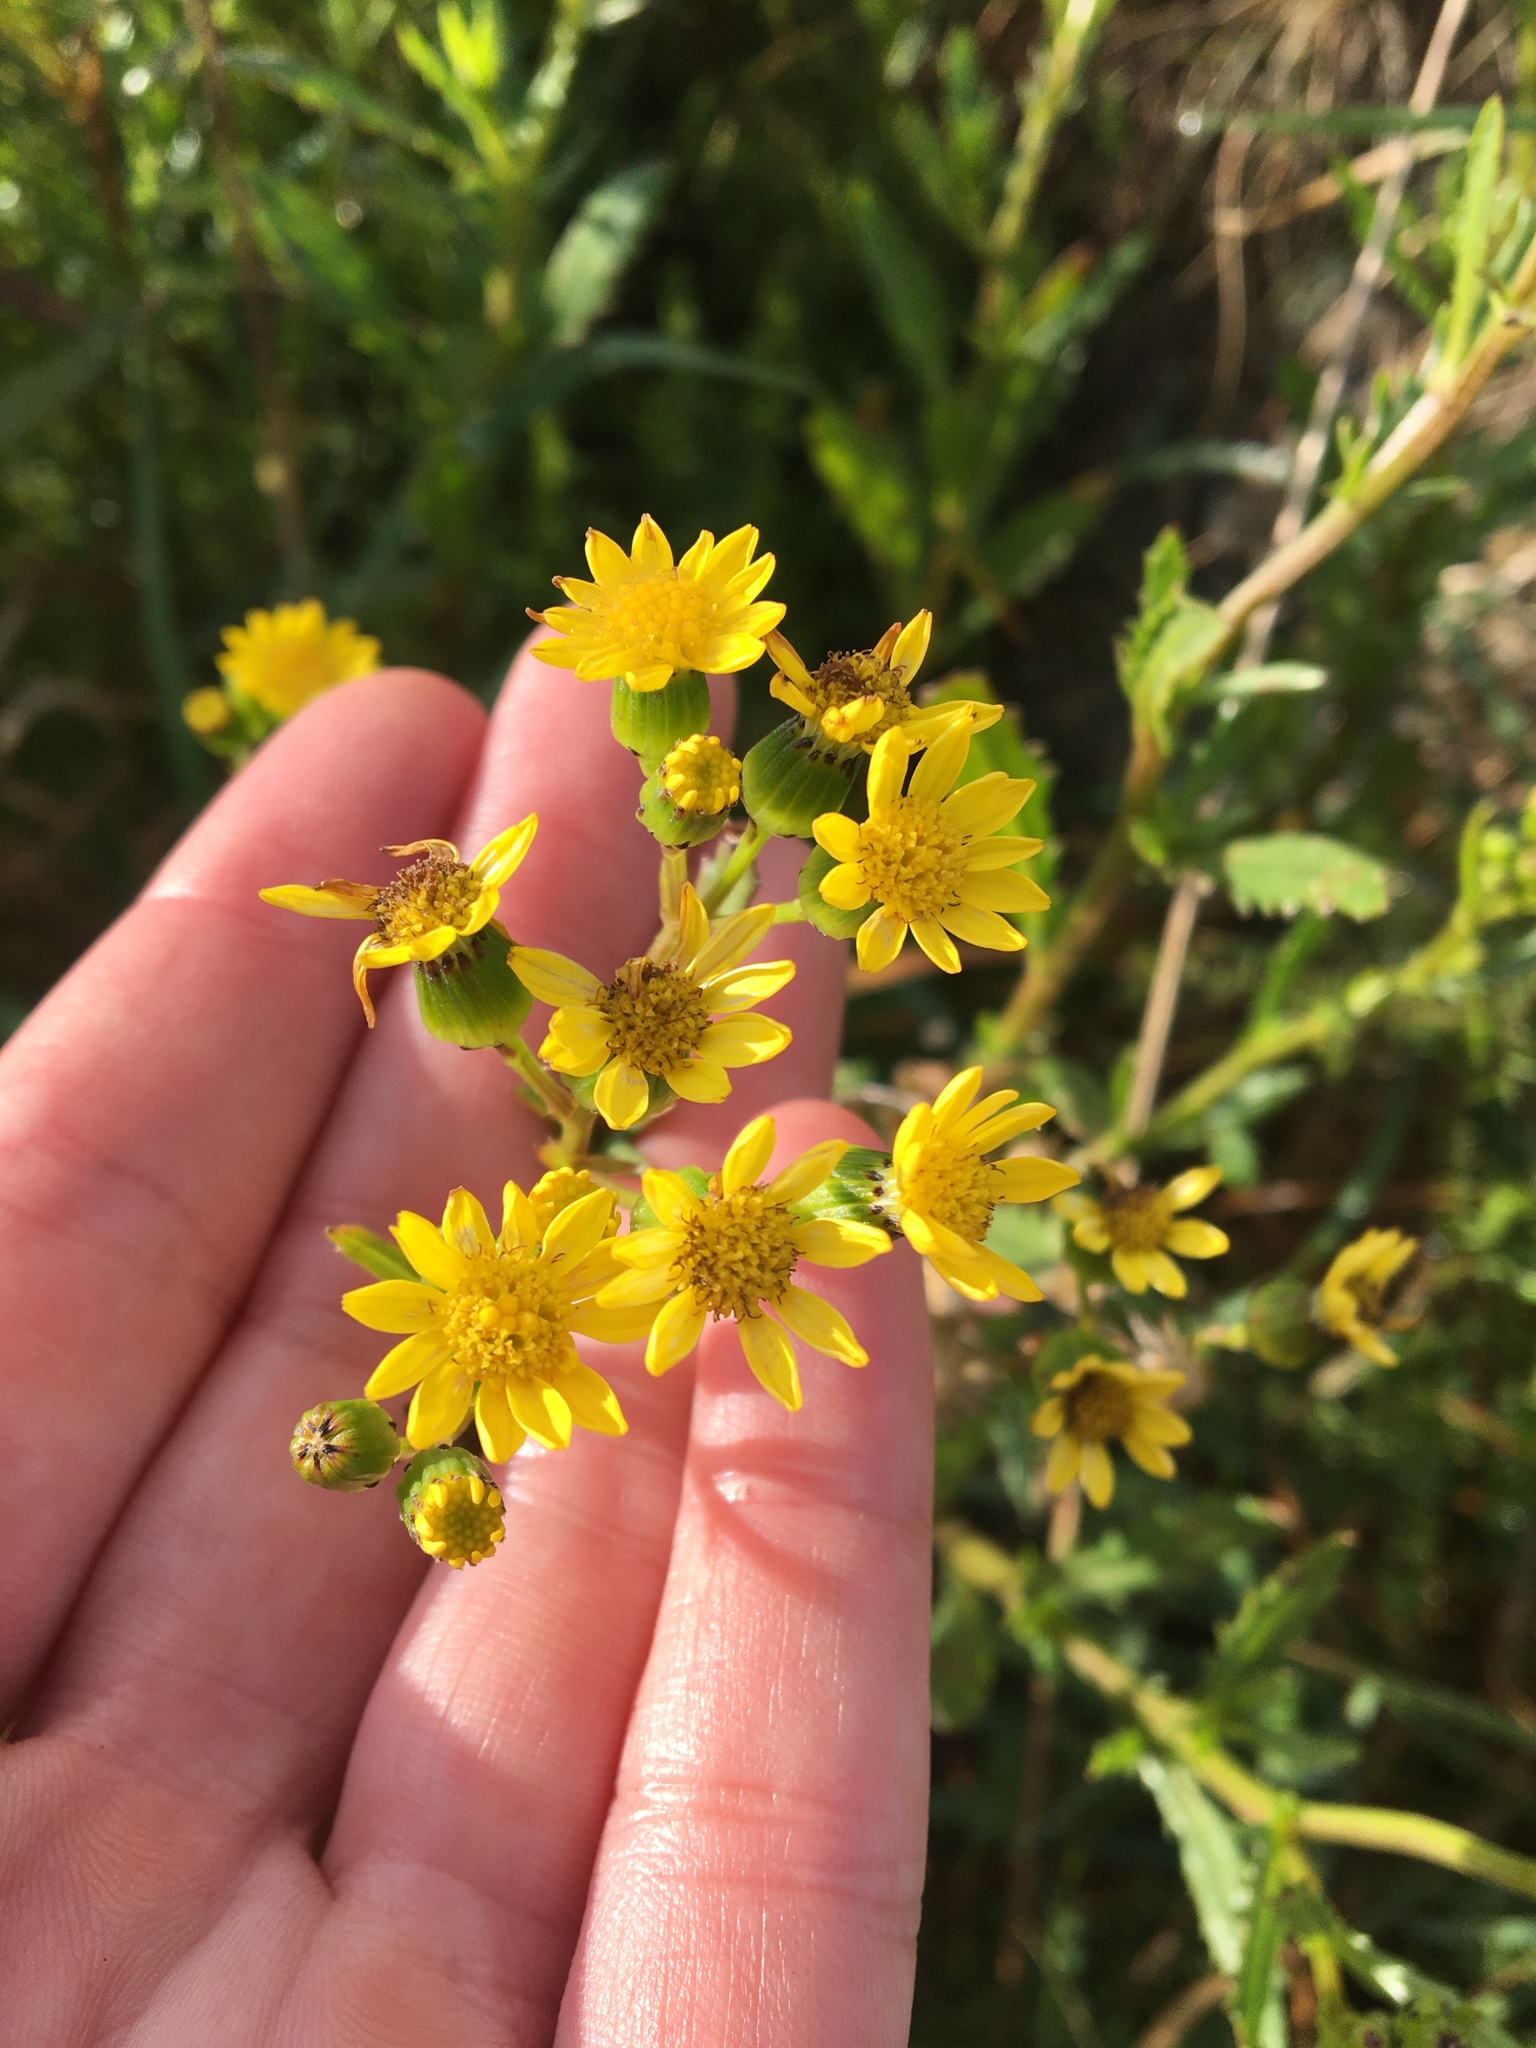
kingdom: Plantae
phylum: Tracheophyta
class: Magnoliopsida
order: Asterales
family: Asteraceae
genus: Senecio
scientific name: Senecio matatini
